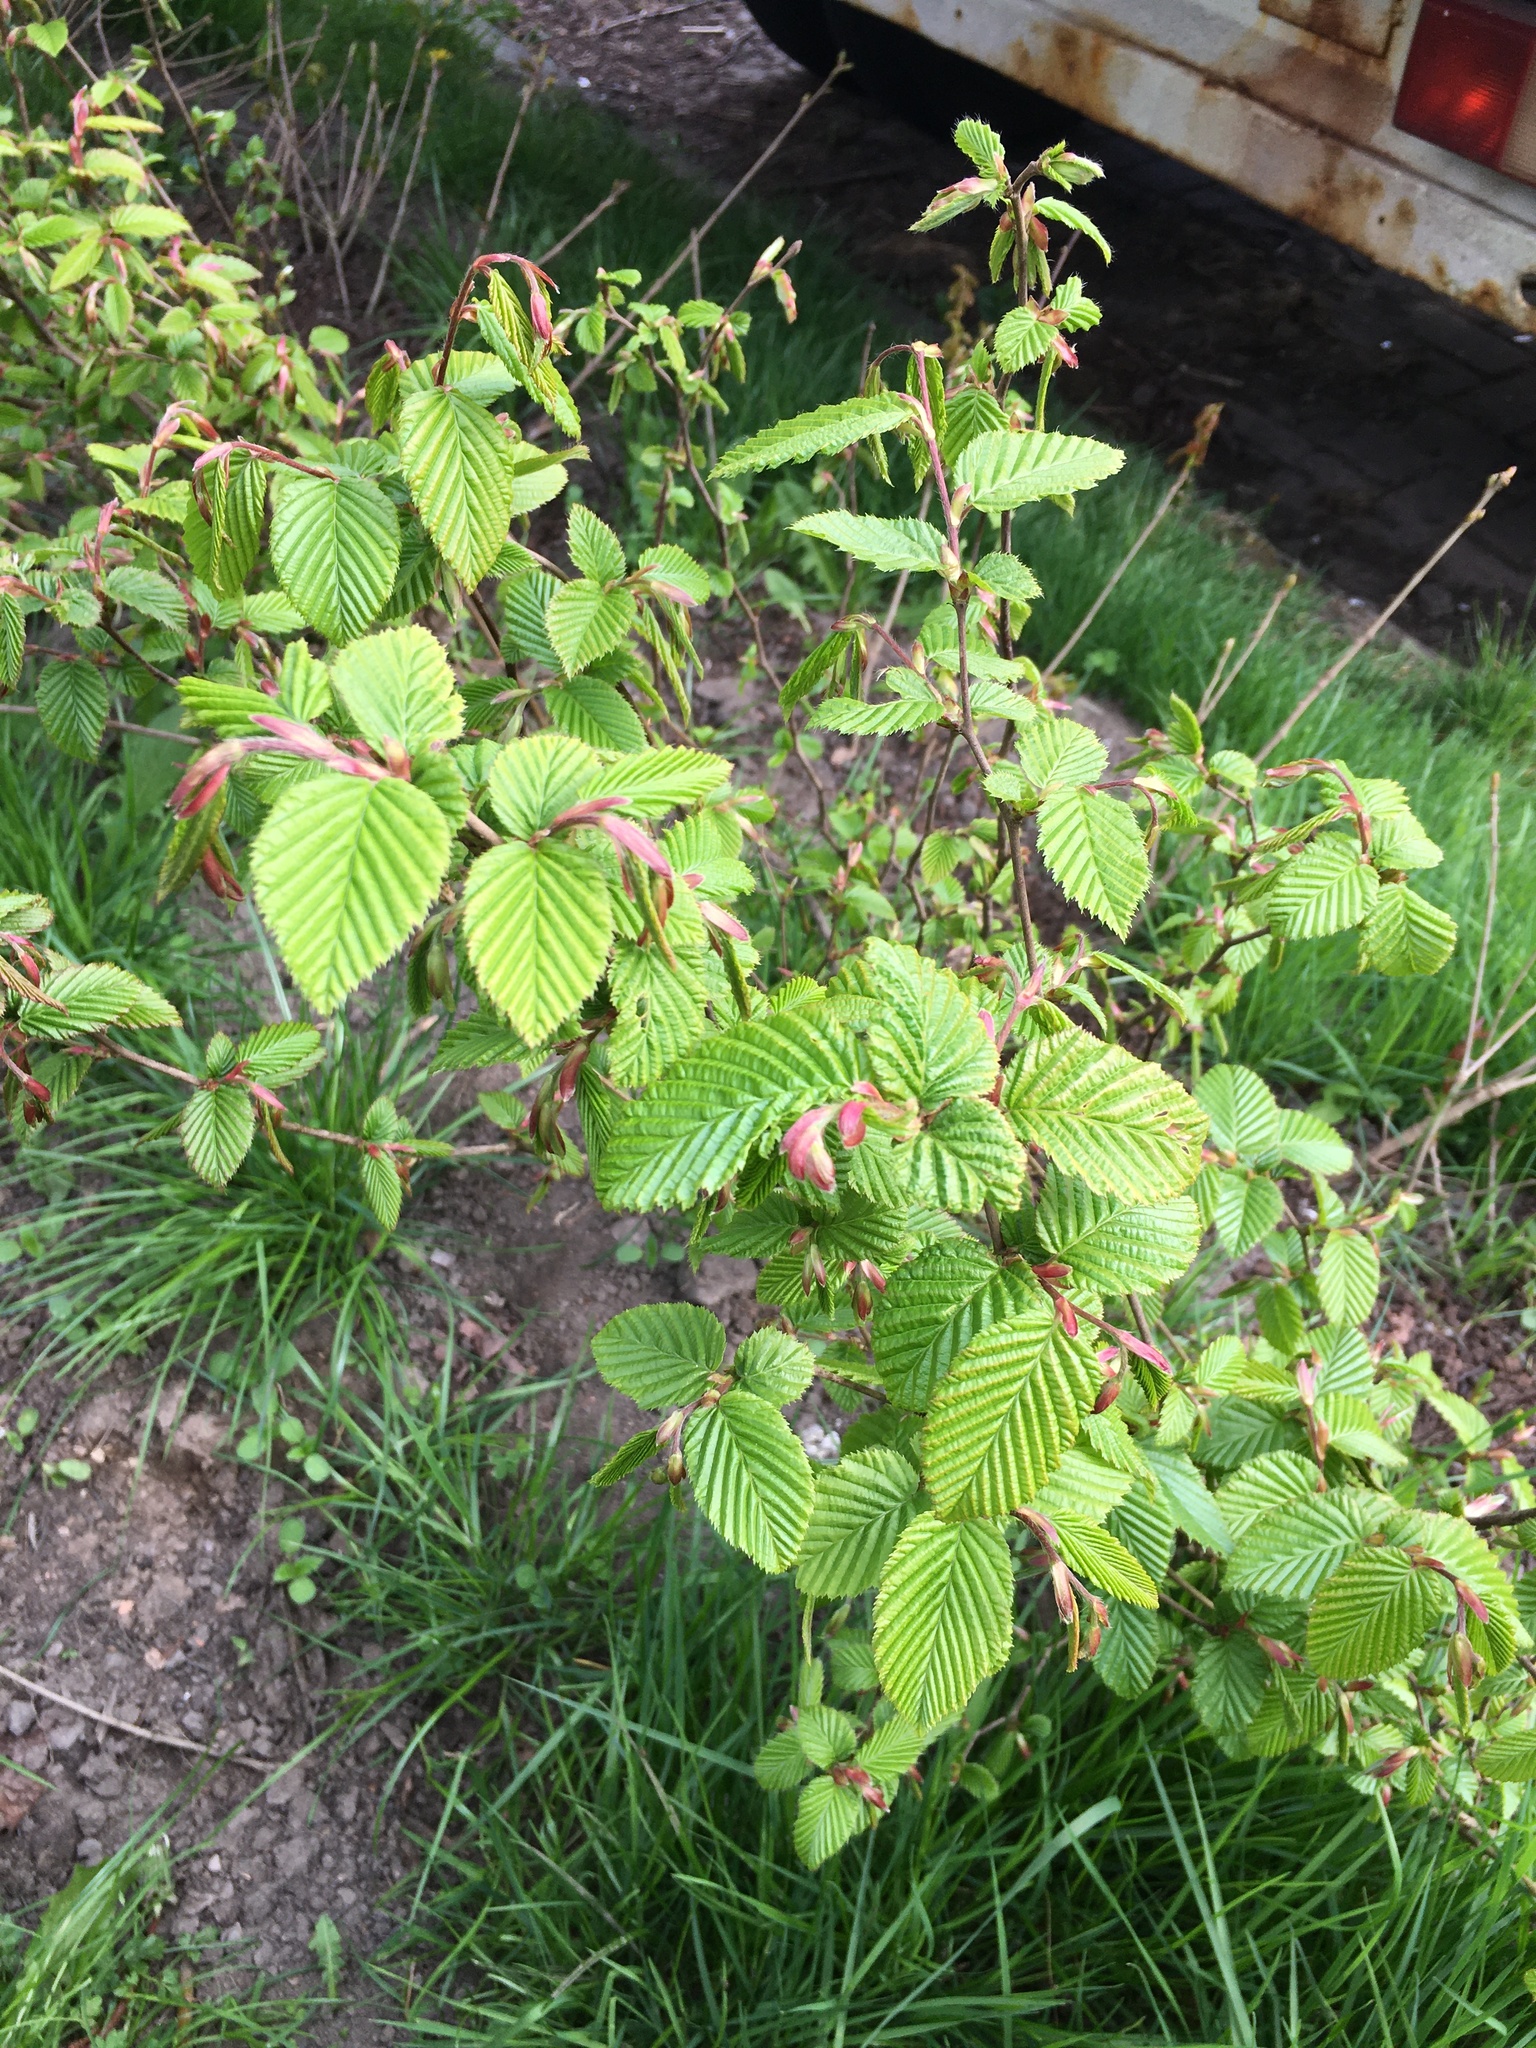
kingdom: Plantae
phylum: Tracheophyta
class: Magnoliopsida
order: Fagales
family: Betulaceae
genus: Carpinus
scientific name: Carpinus betulus
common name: Hornbeam
